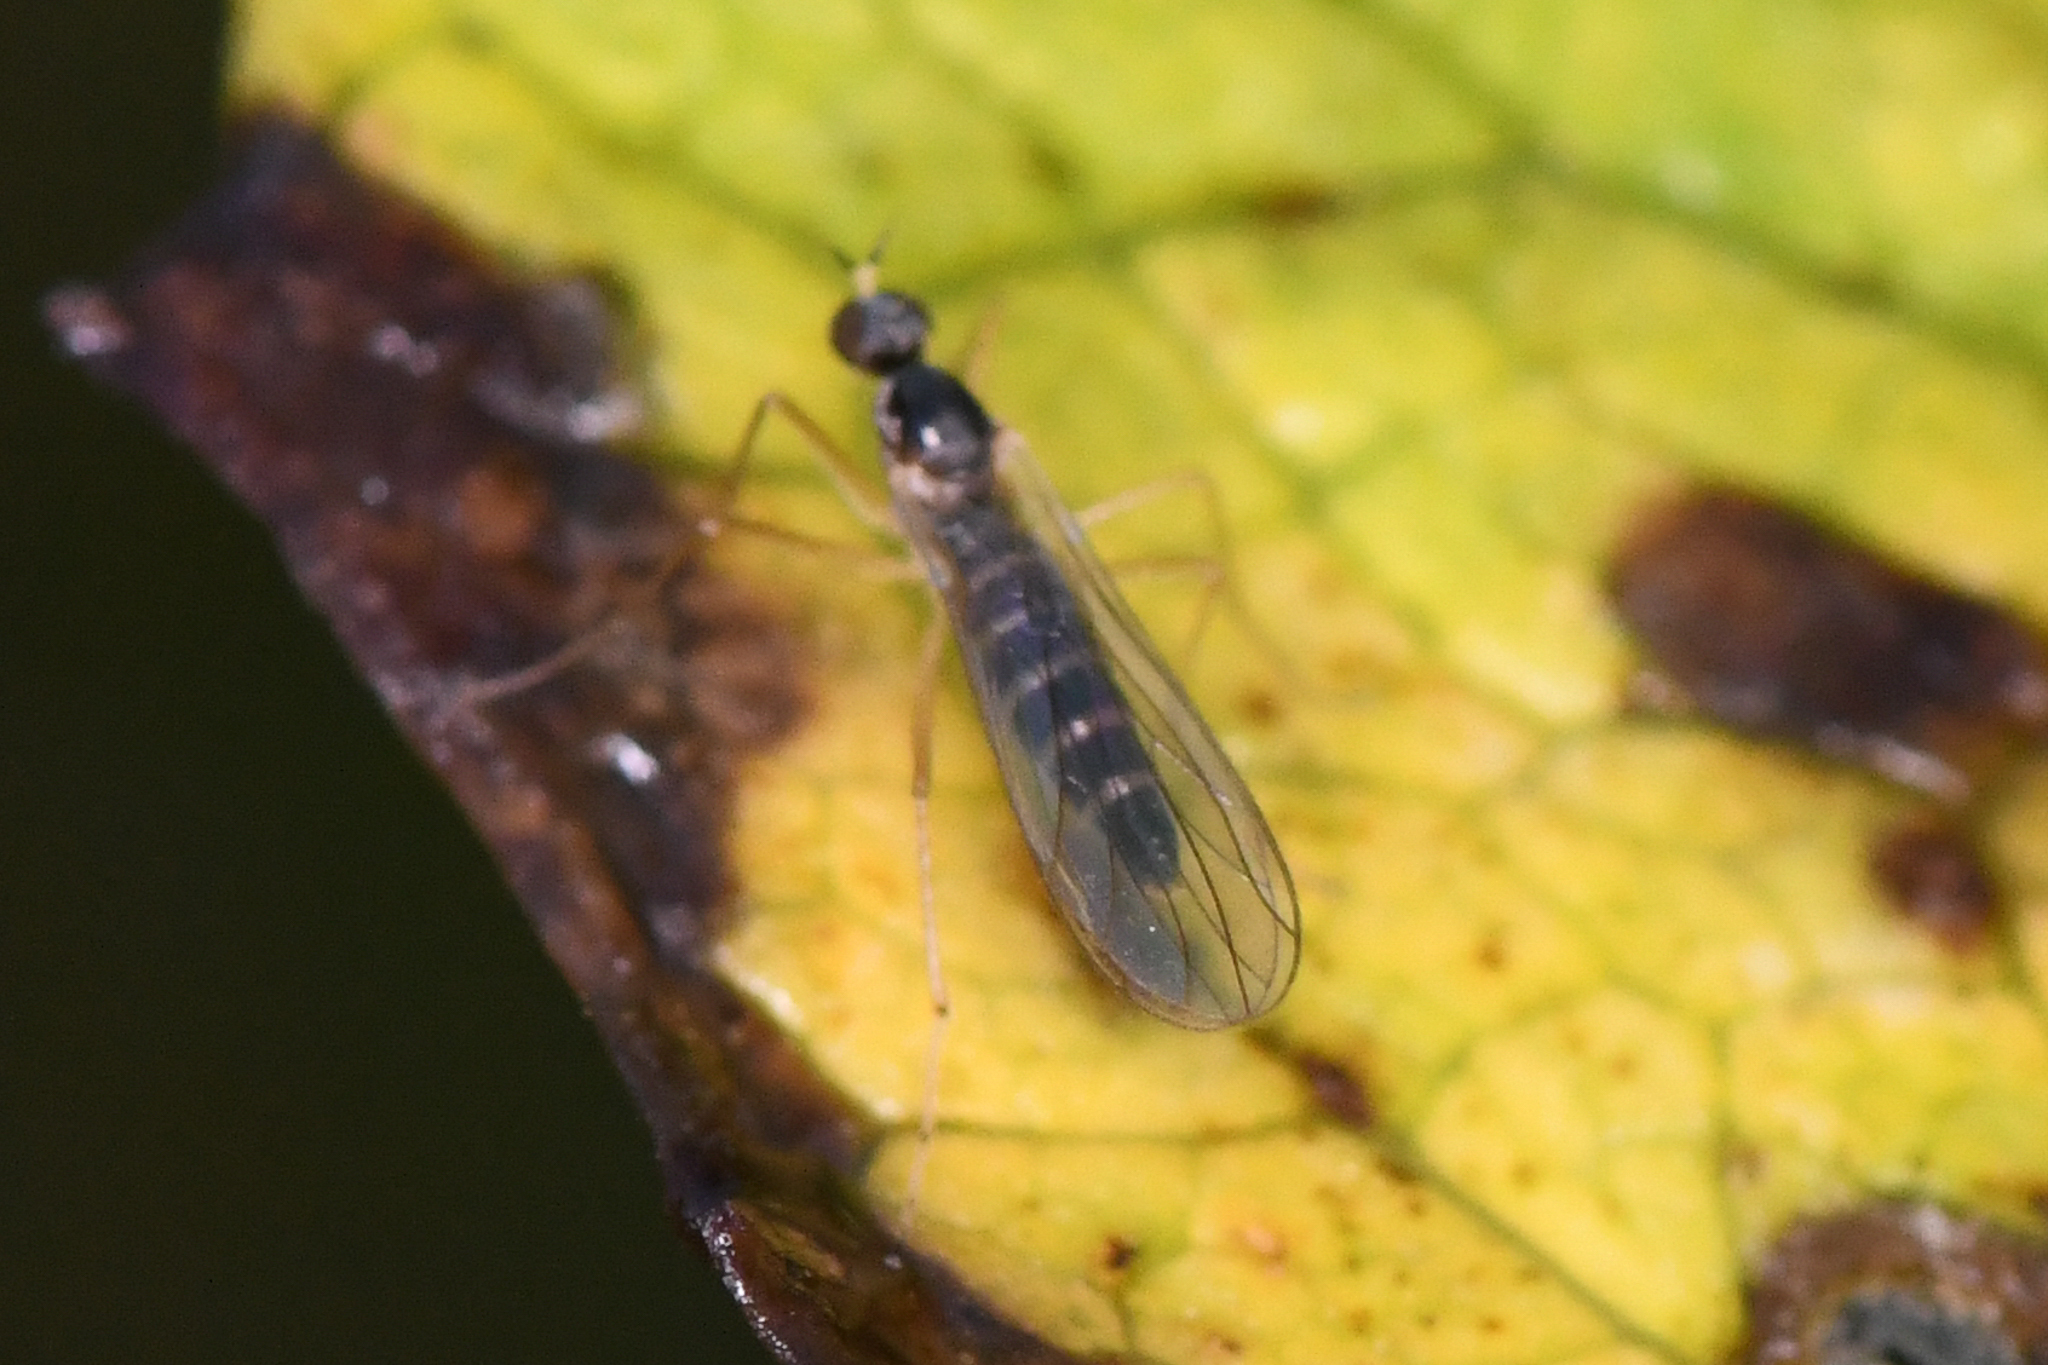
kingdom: Animalia
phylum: Arthropoda
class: Insecta
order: Diptera
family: Brachystomatidae
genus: Boreodromia
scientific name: Boreodromia bicolor
